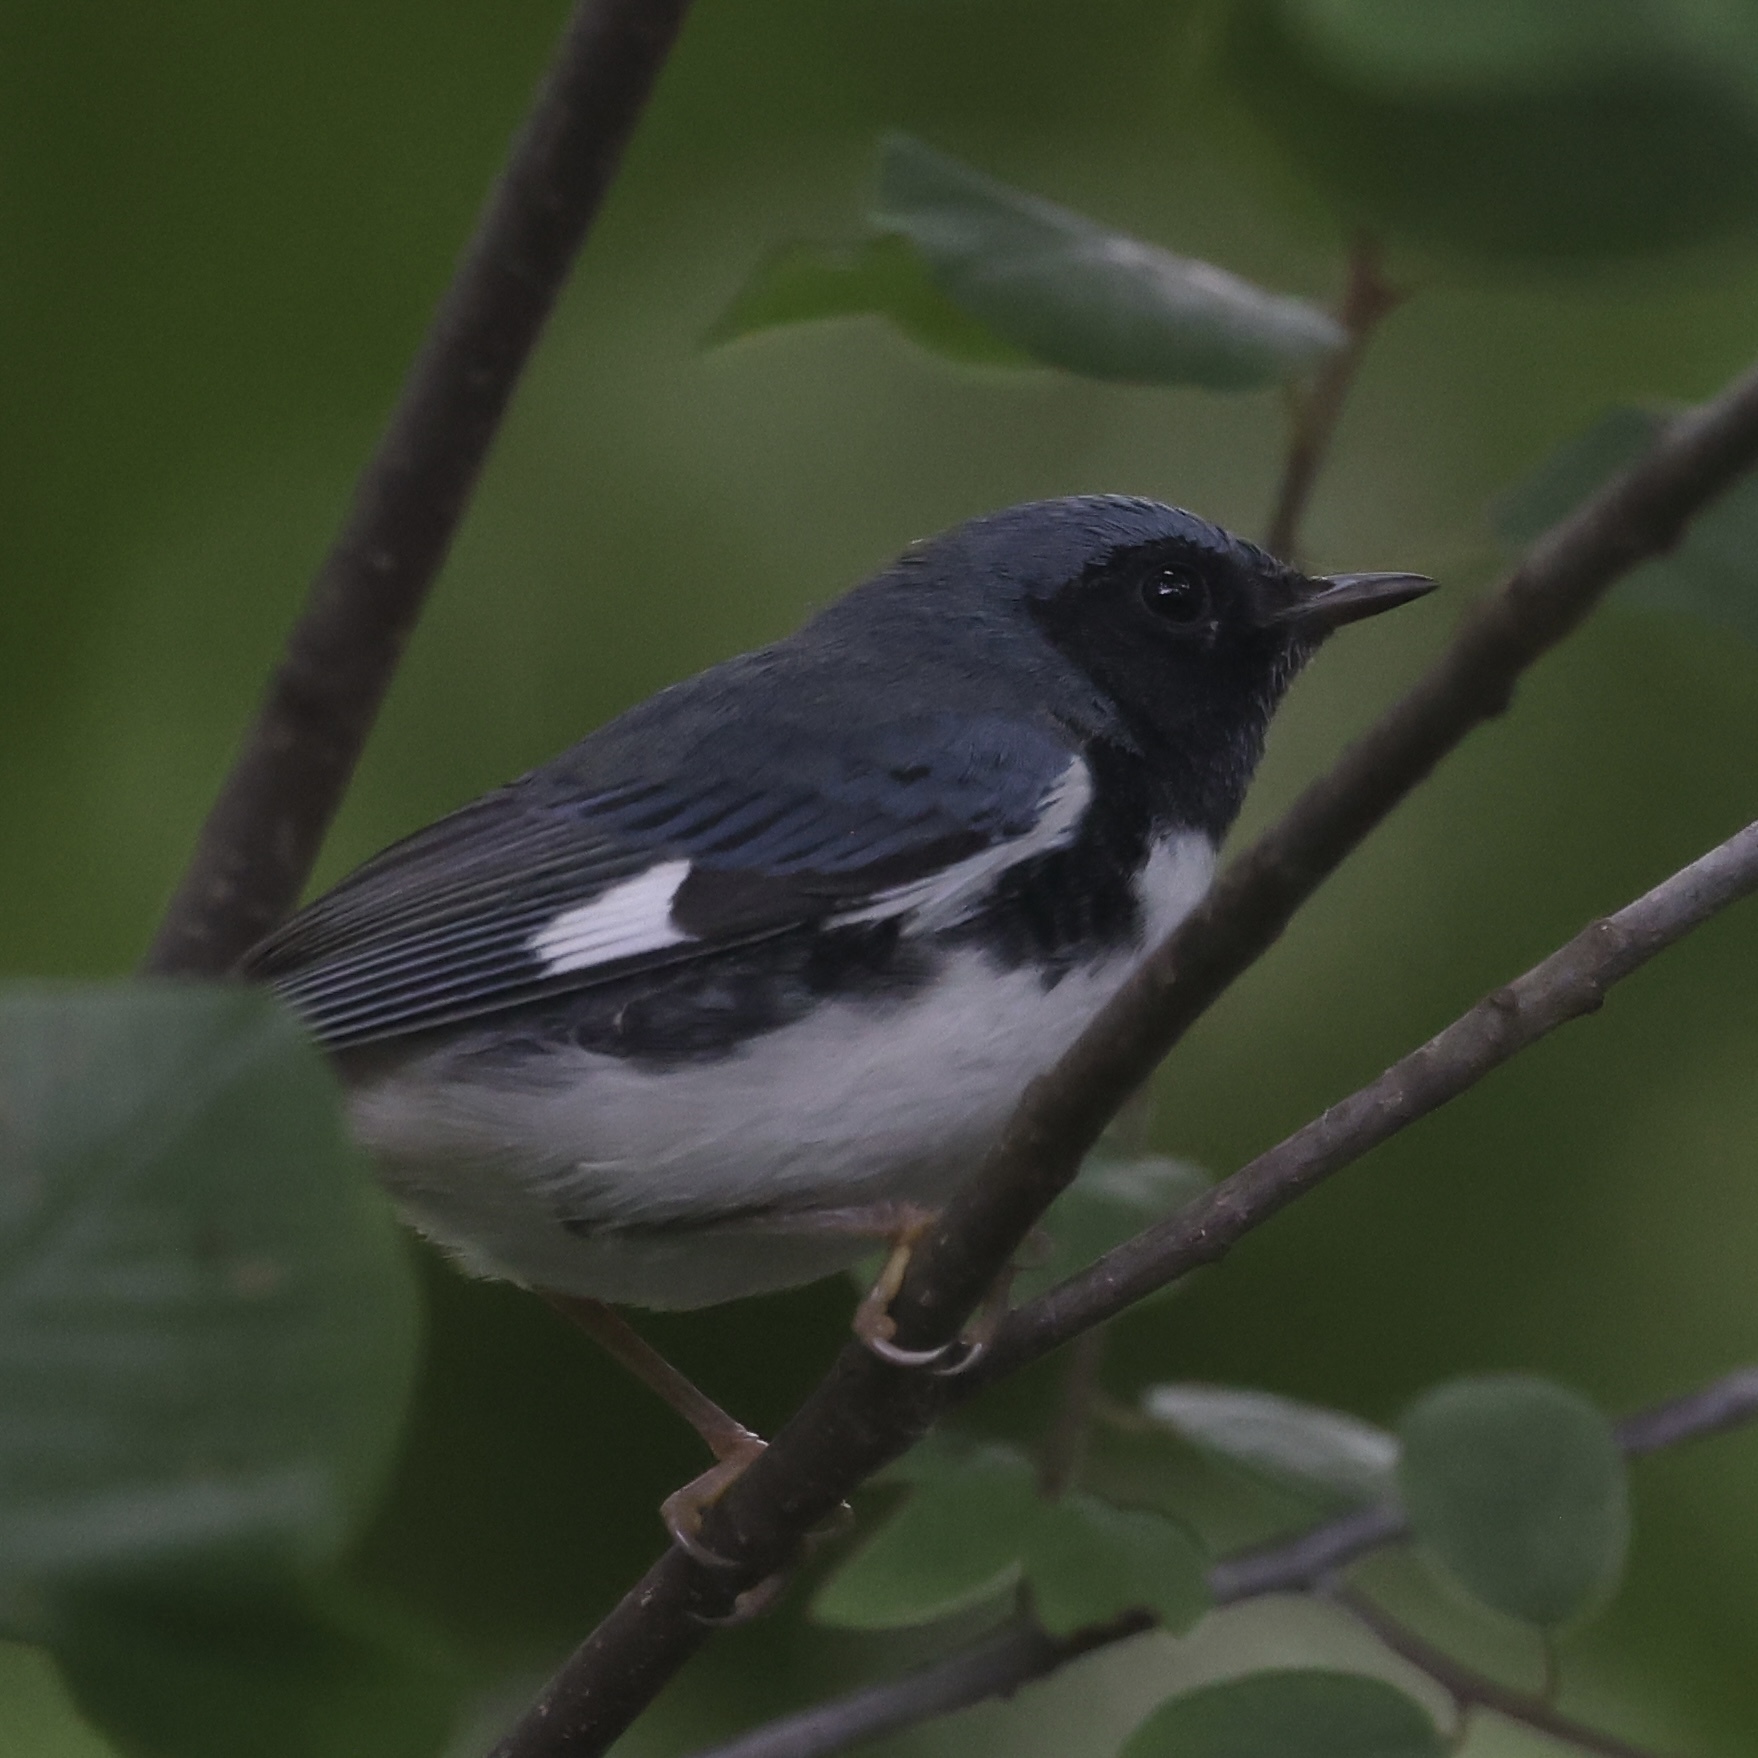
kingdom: Animalia
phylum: Chordata
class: Aves
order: Passeriformes
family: Parulidae
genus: Setophaga
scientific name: Setophaga caerulescens
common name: Black-throated blue warbler
